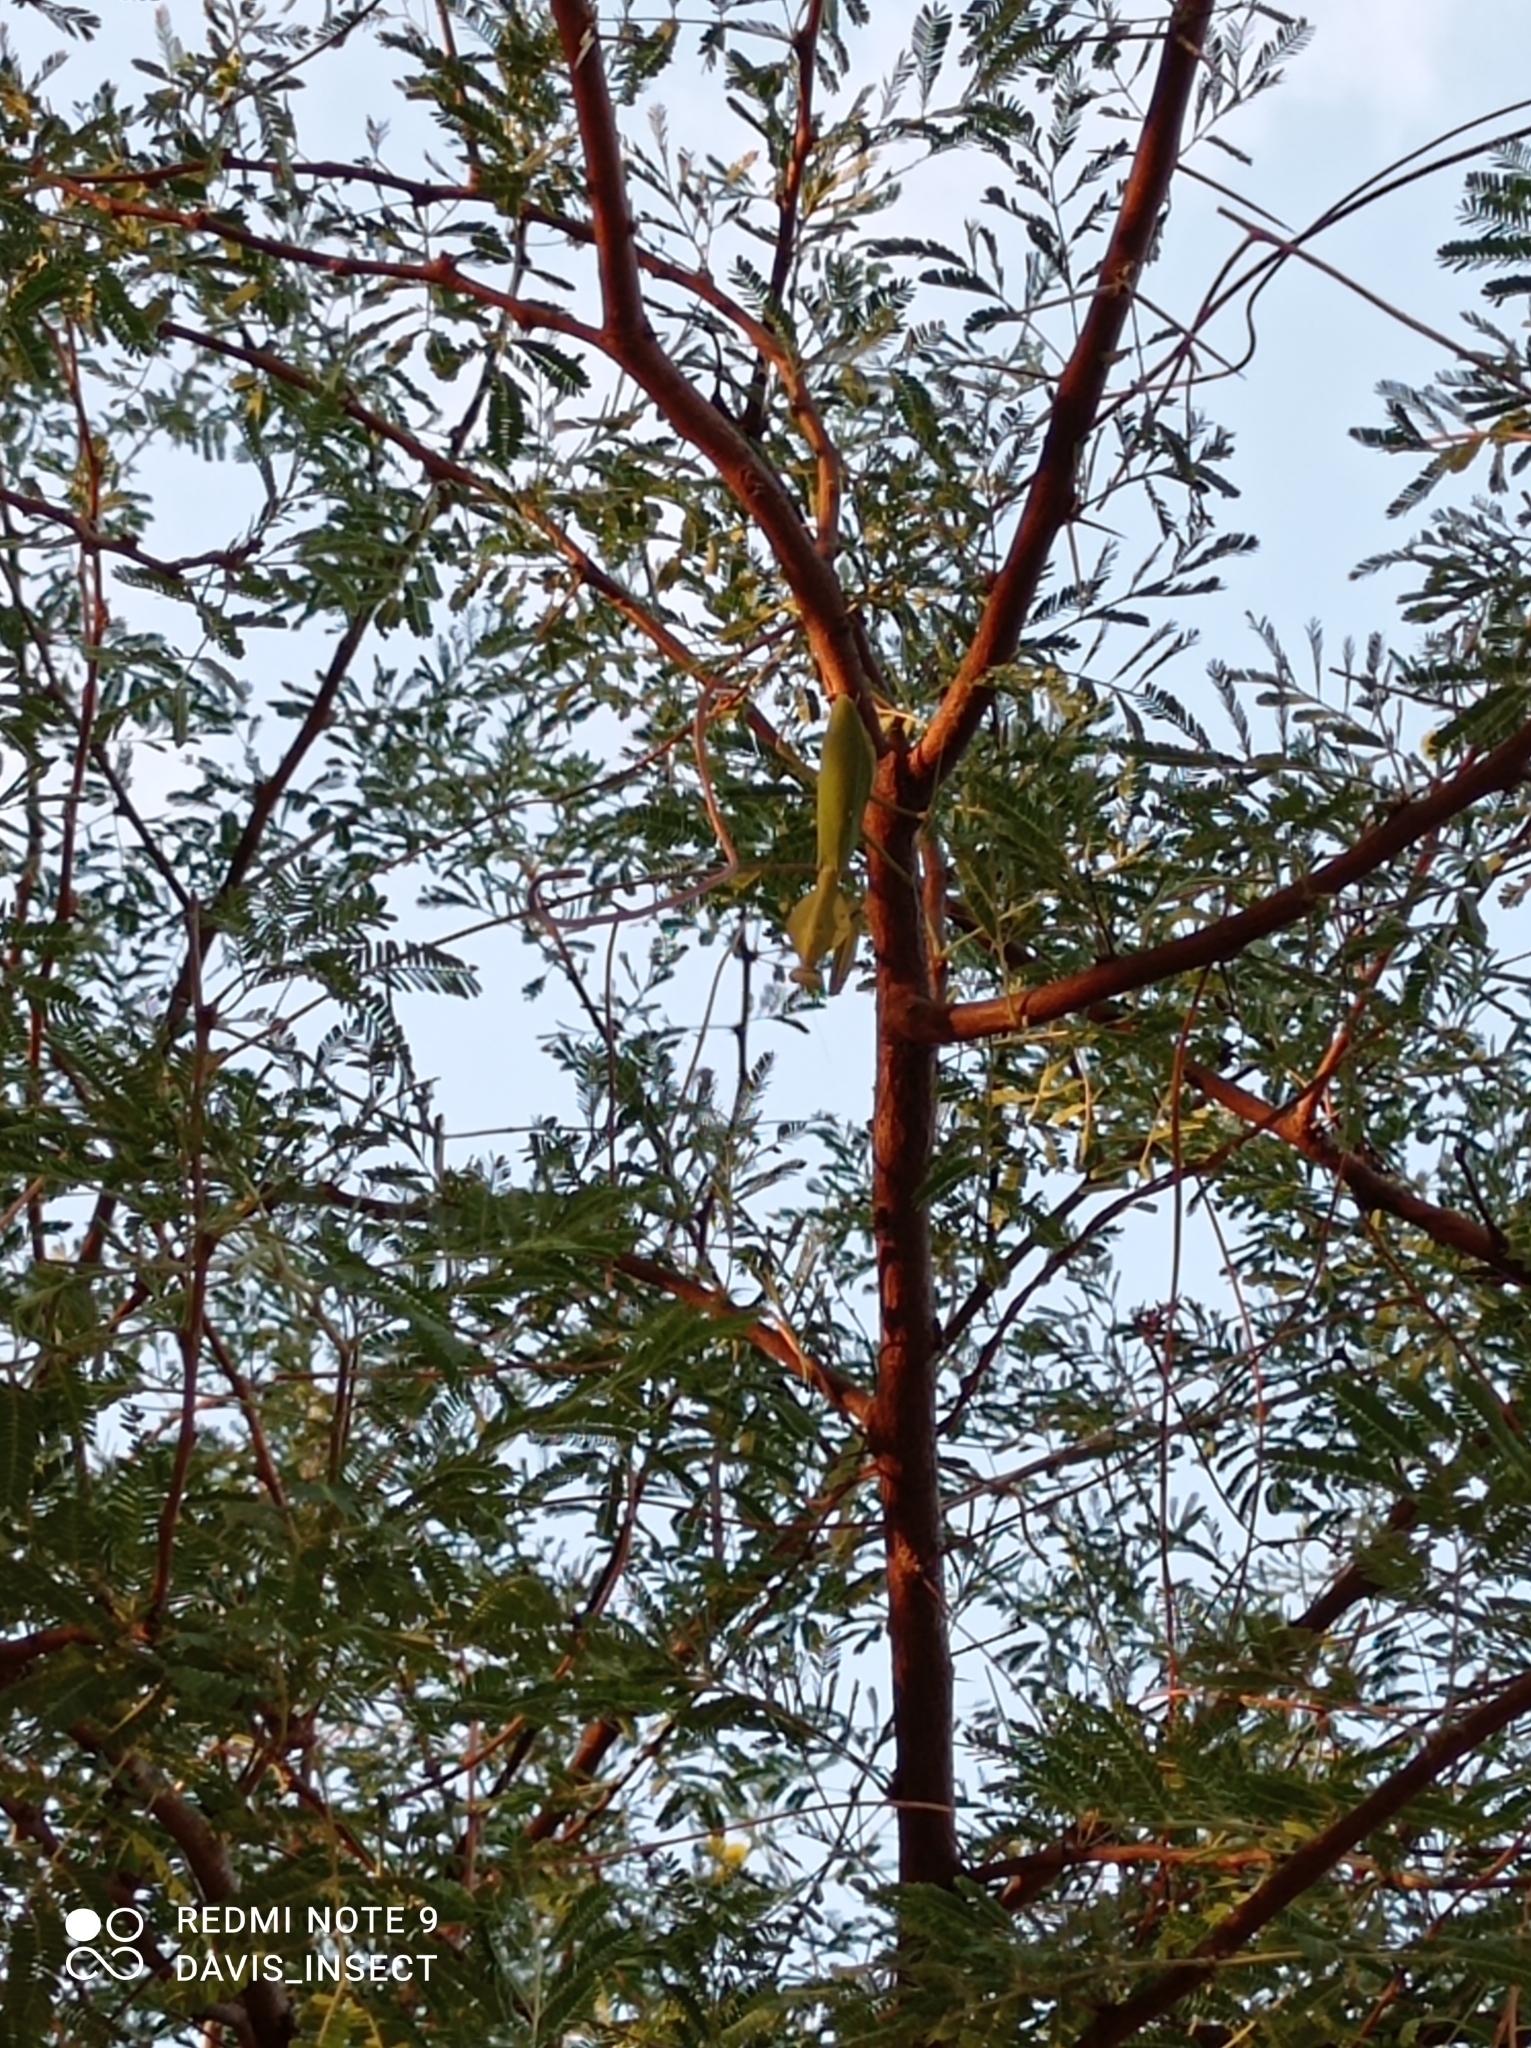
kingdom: Animalia
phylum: Arthropoda
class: Insecta
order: Mantodea
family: Mantidae
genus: Rhombodera
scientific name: Rhombodera kirbyi
